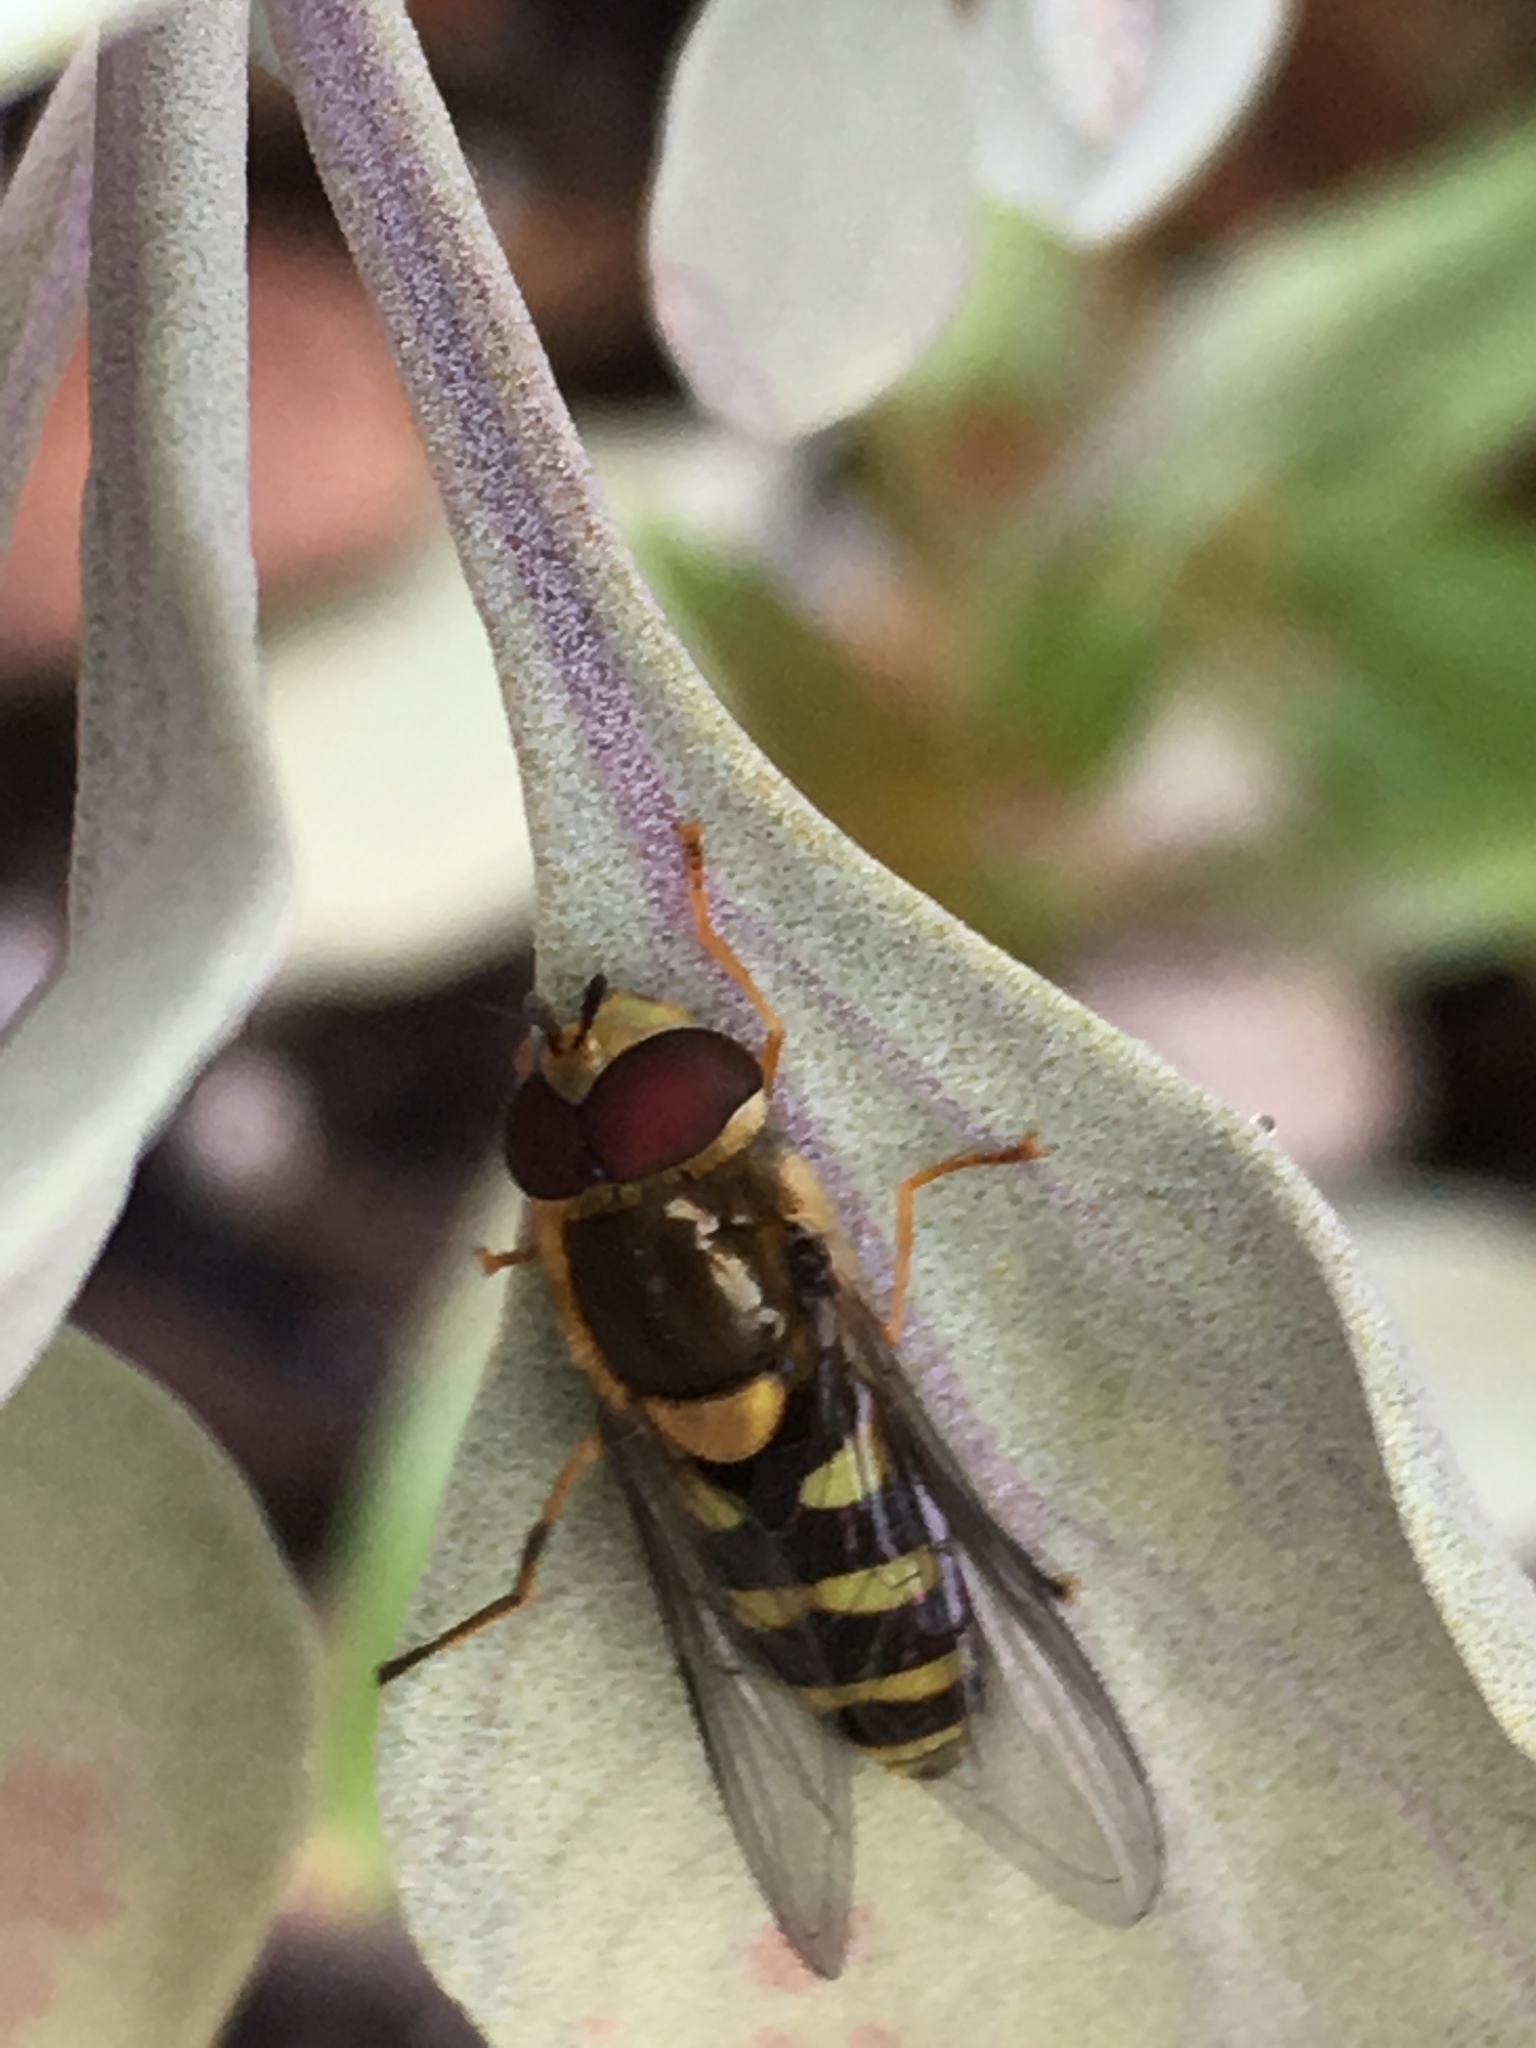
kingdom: Animalia
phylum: Arthropoda
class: Insecta
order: Diptera
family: Syrphidae
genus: Syrphus
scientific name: Syrphus opinator
